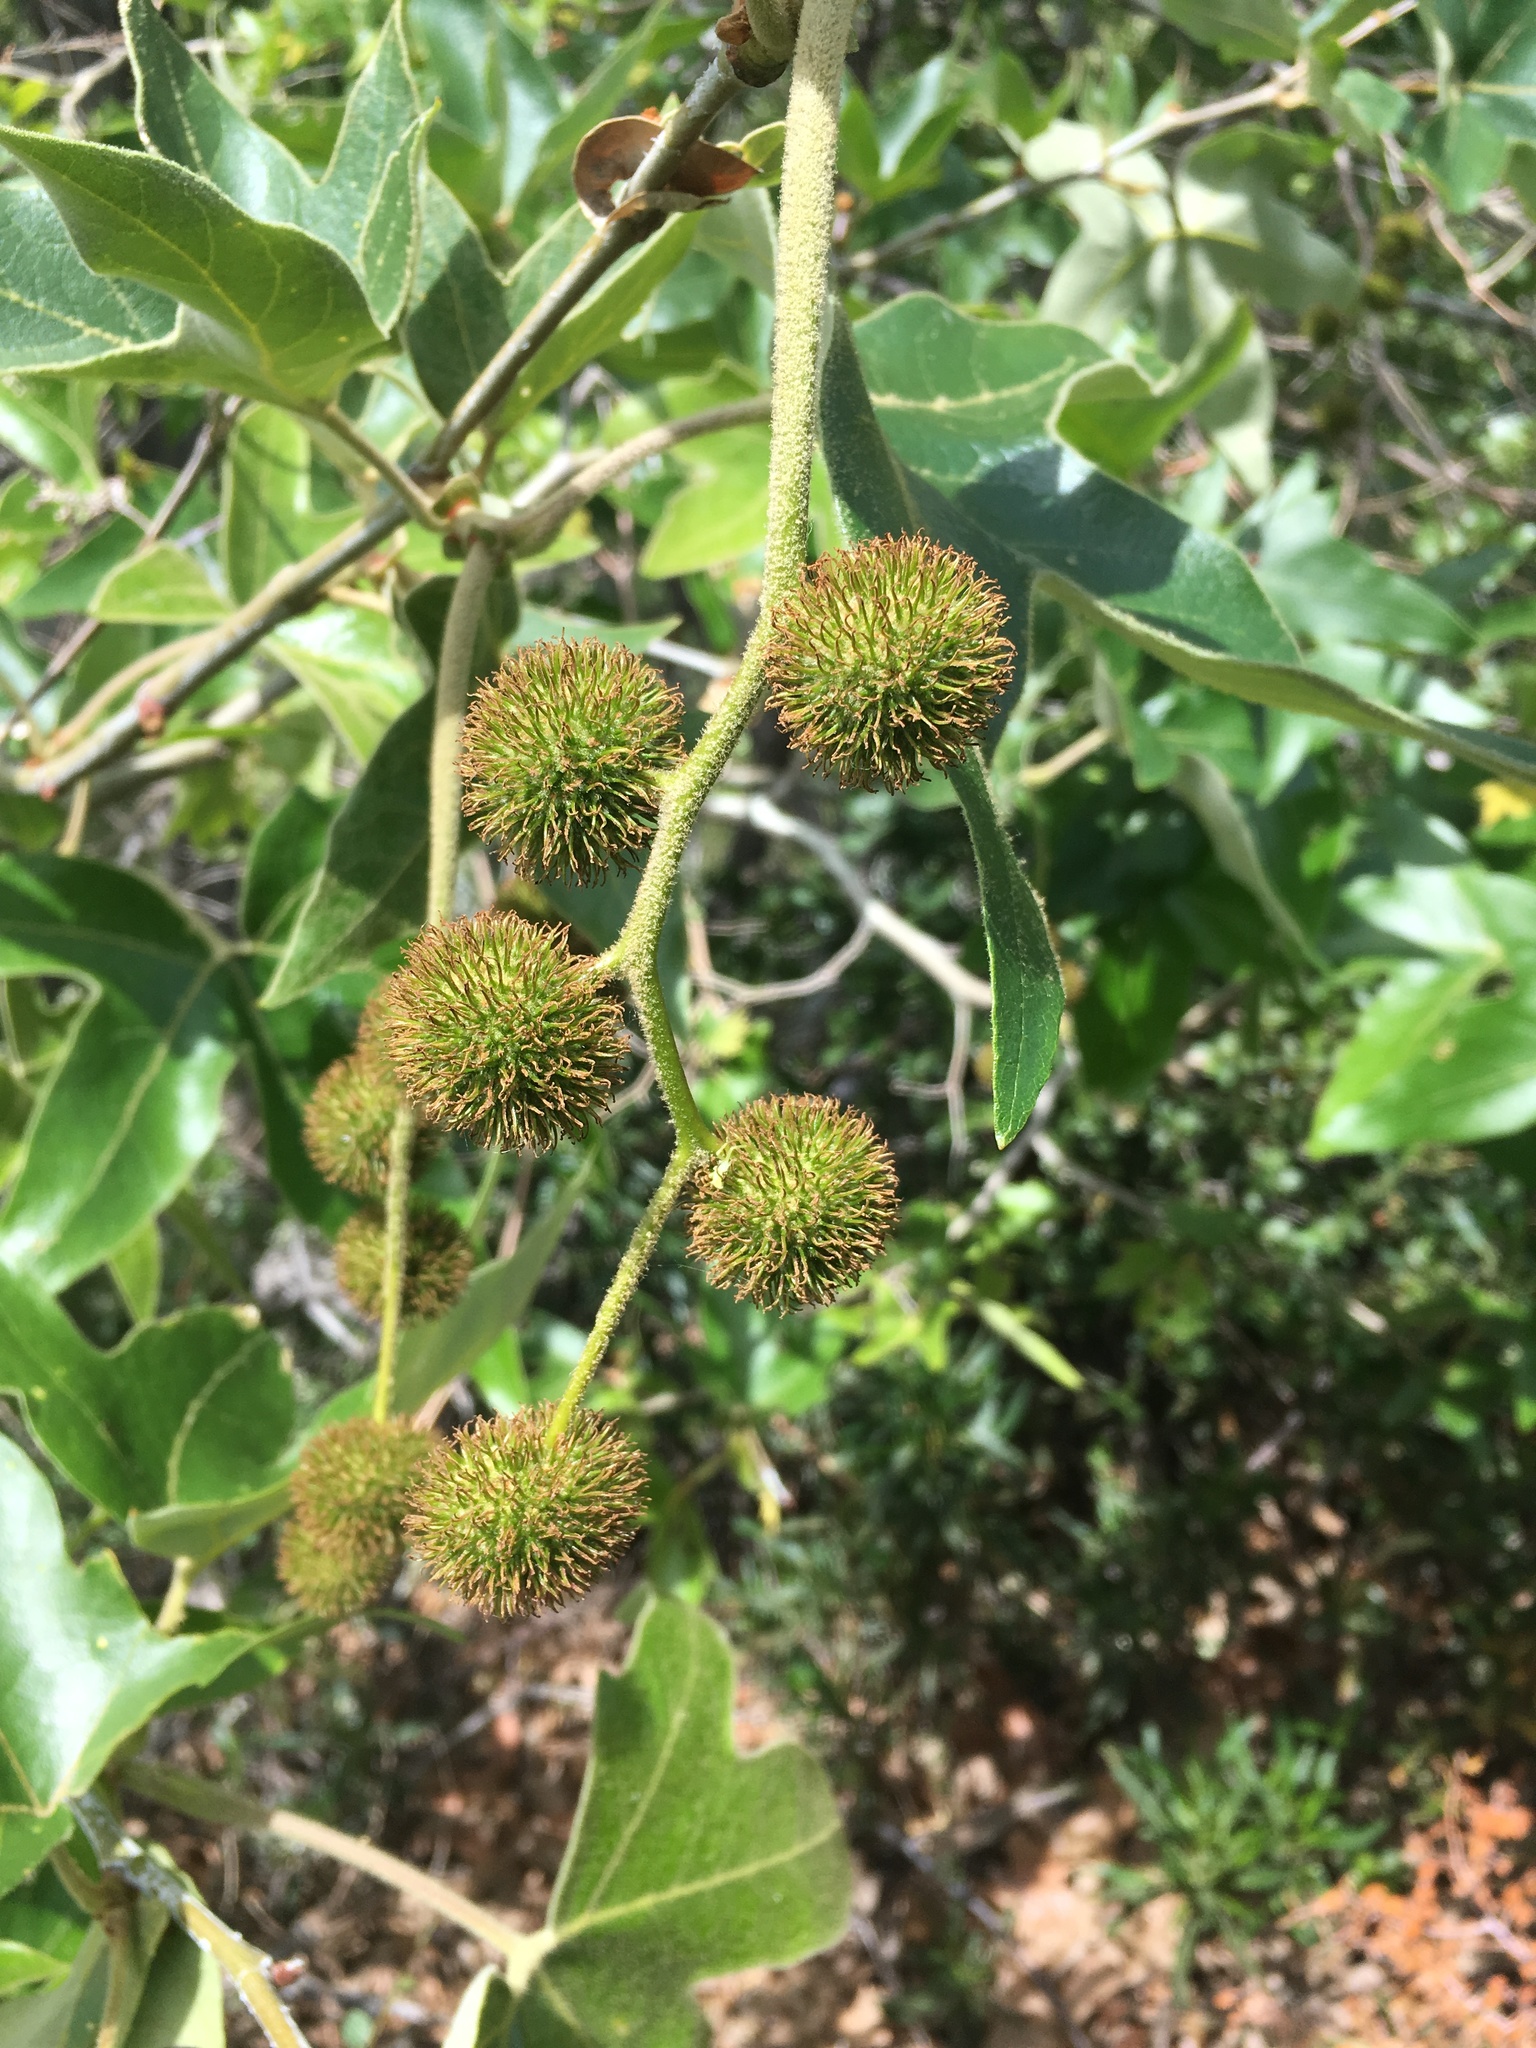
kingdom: Plantae
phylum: Tracheophyta
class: Magnoliopsida
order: Proteales
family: Platanaceae
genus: Platanus
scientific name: Platanus racemosa
